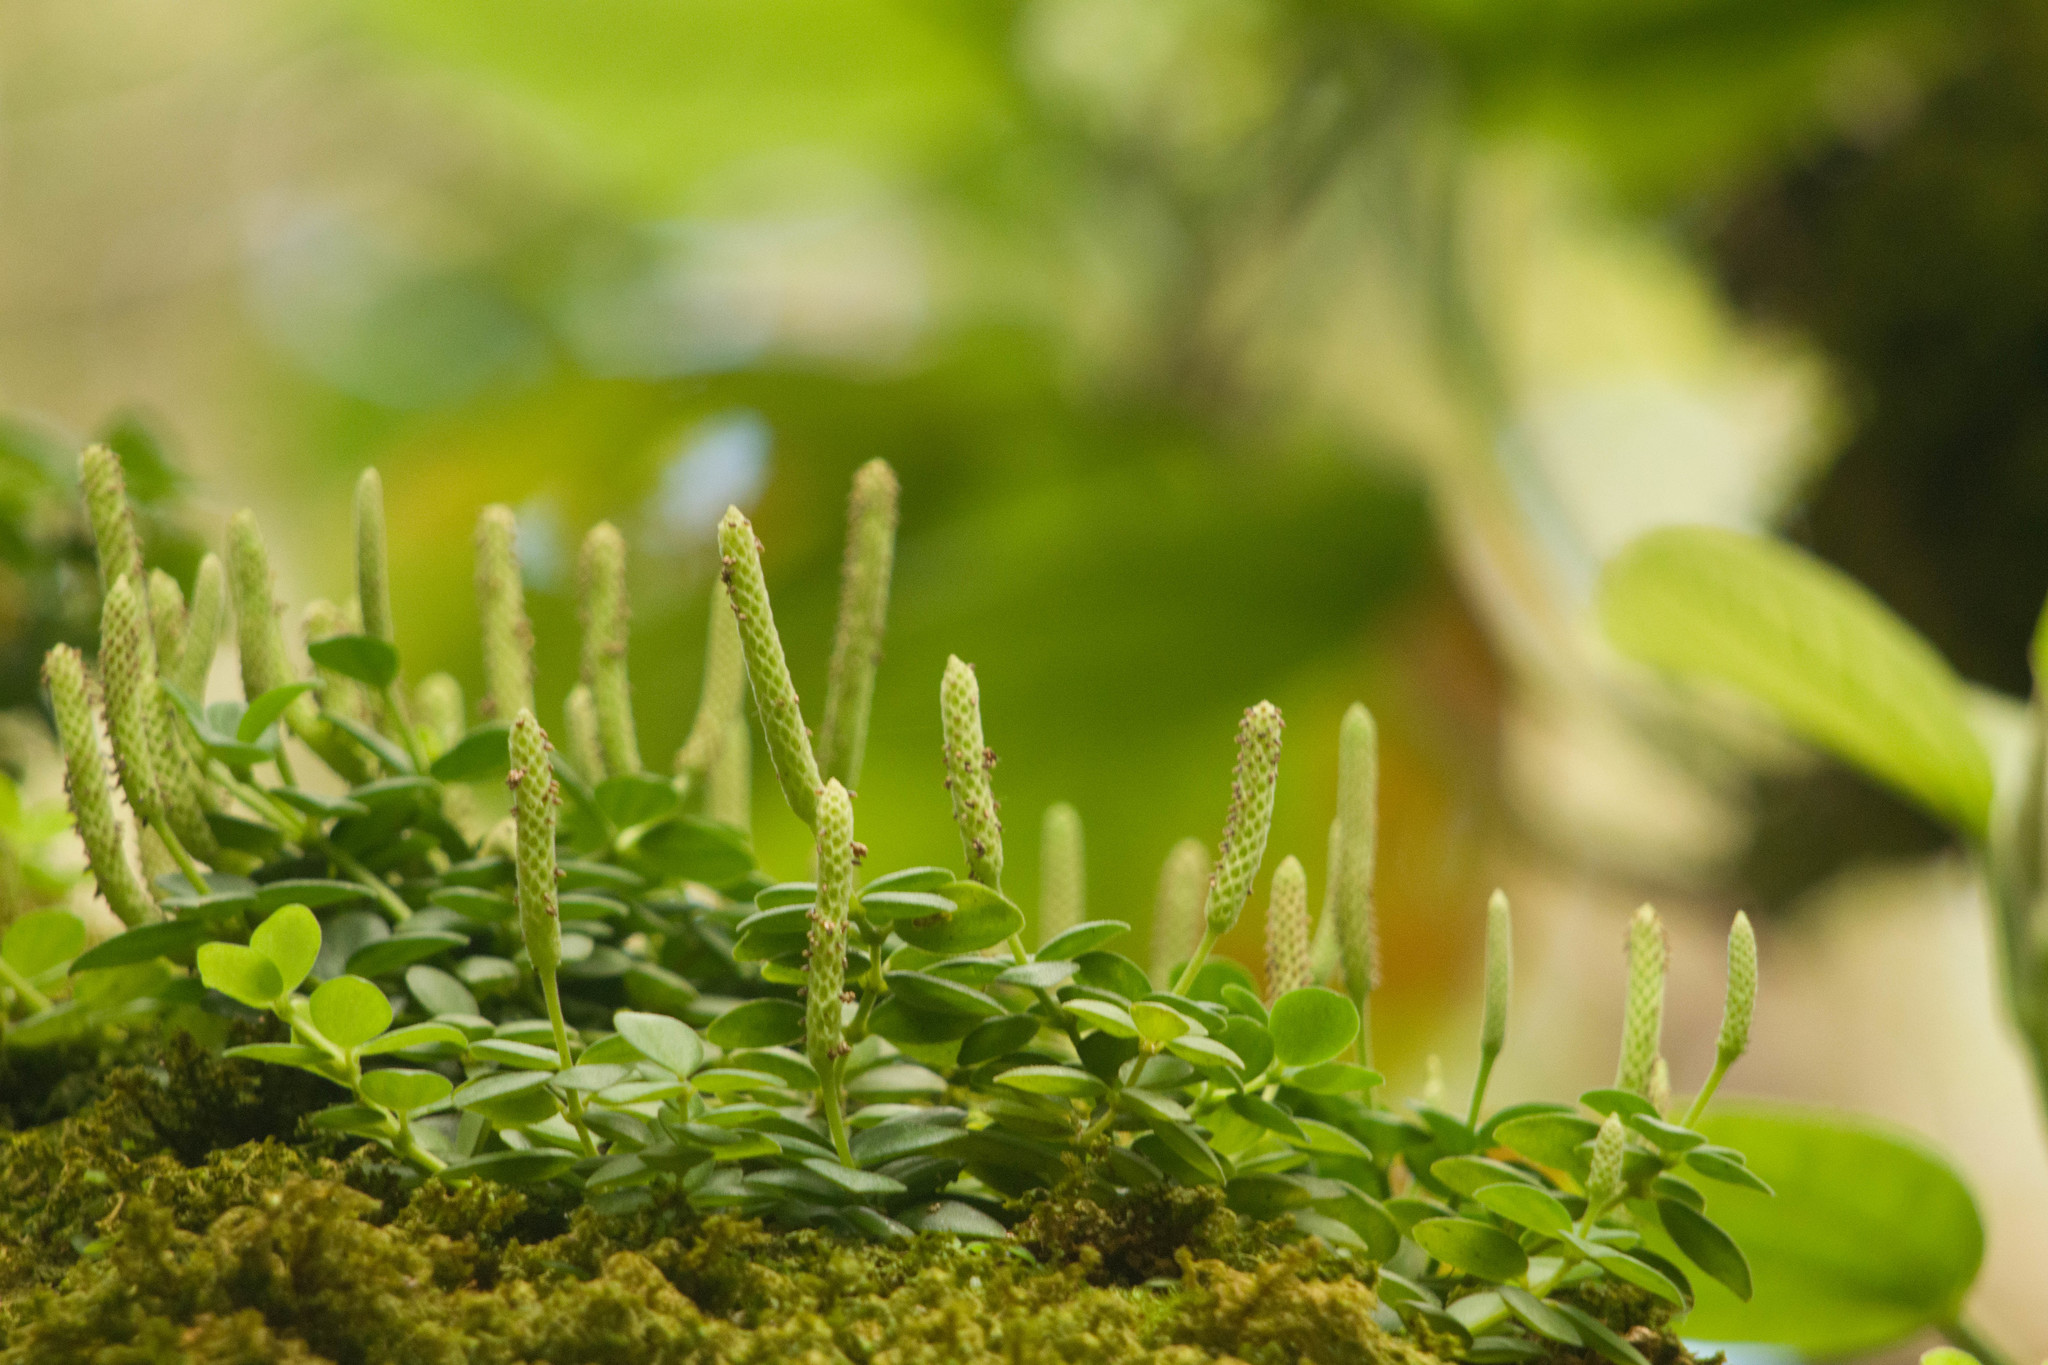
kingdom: Plantae
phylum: Tracheophyta
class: Magnoliopsida
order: Piperales
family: Piperaceae
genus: Peperomia
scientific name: Peperomia tetraphylla
